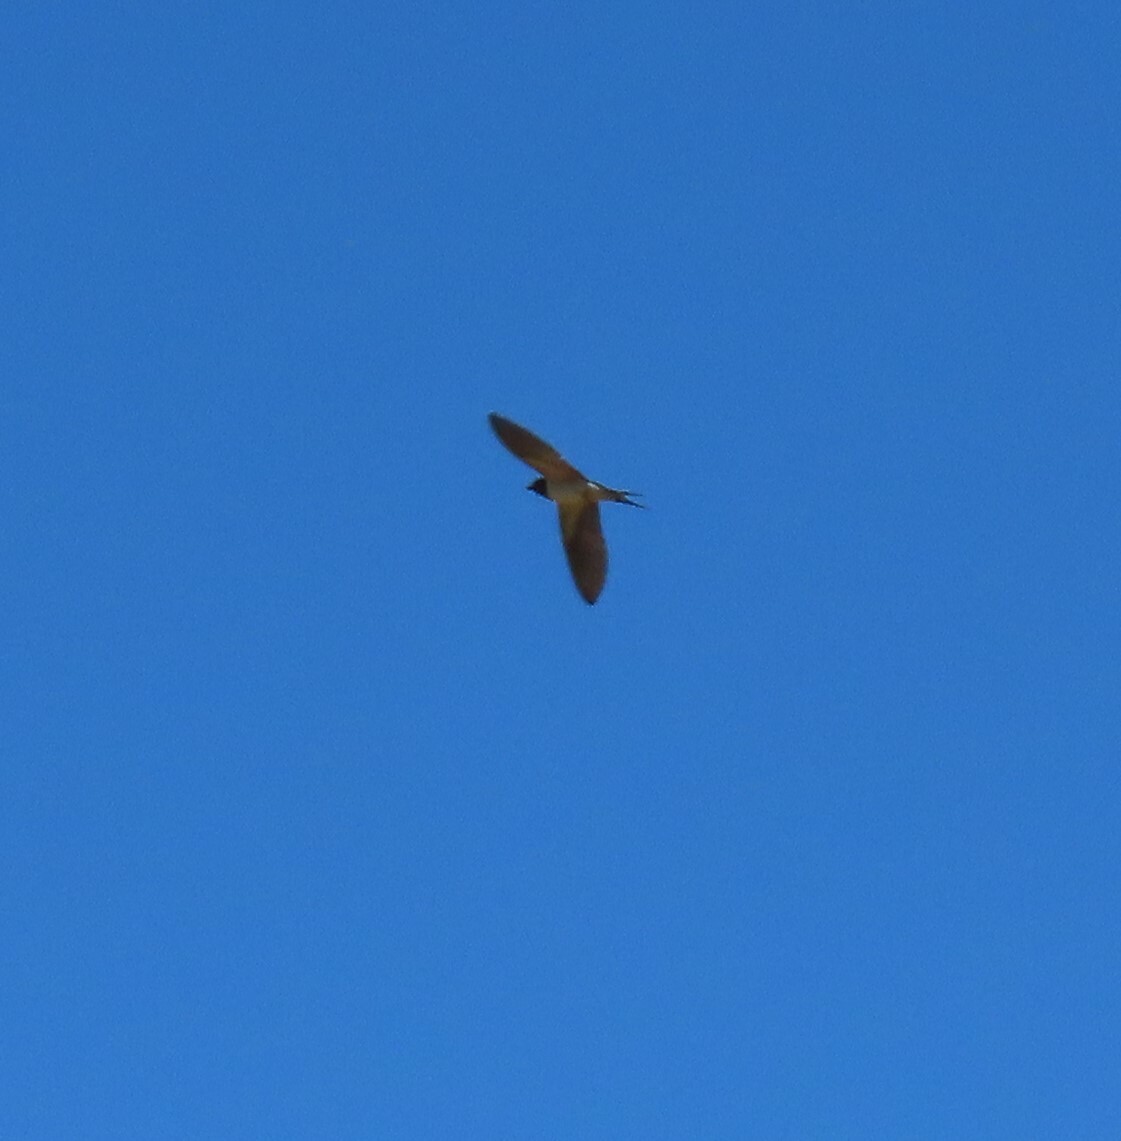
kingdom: Animalia
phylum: Chordata
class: Aves
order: Passeriformes
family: Hirundinidae
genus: Hirundo
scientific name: Hirundo rustica
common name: Barn swallow
